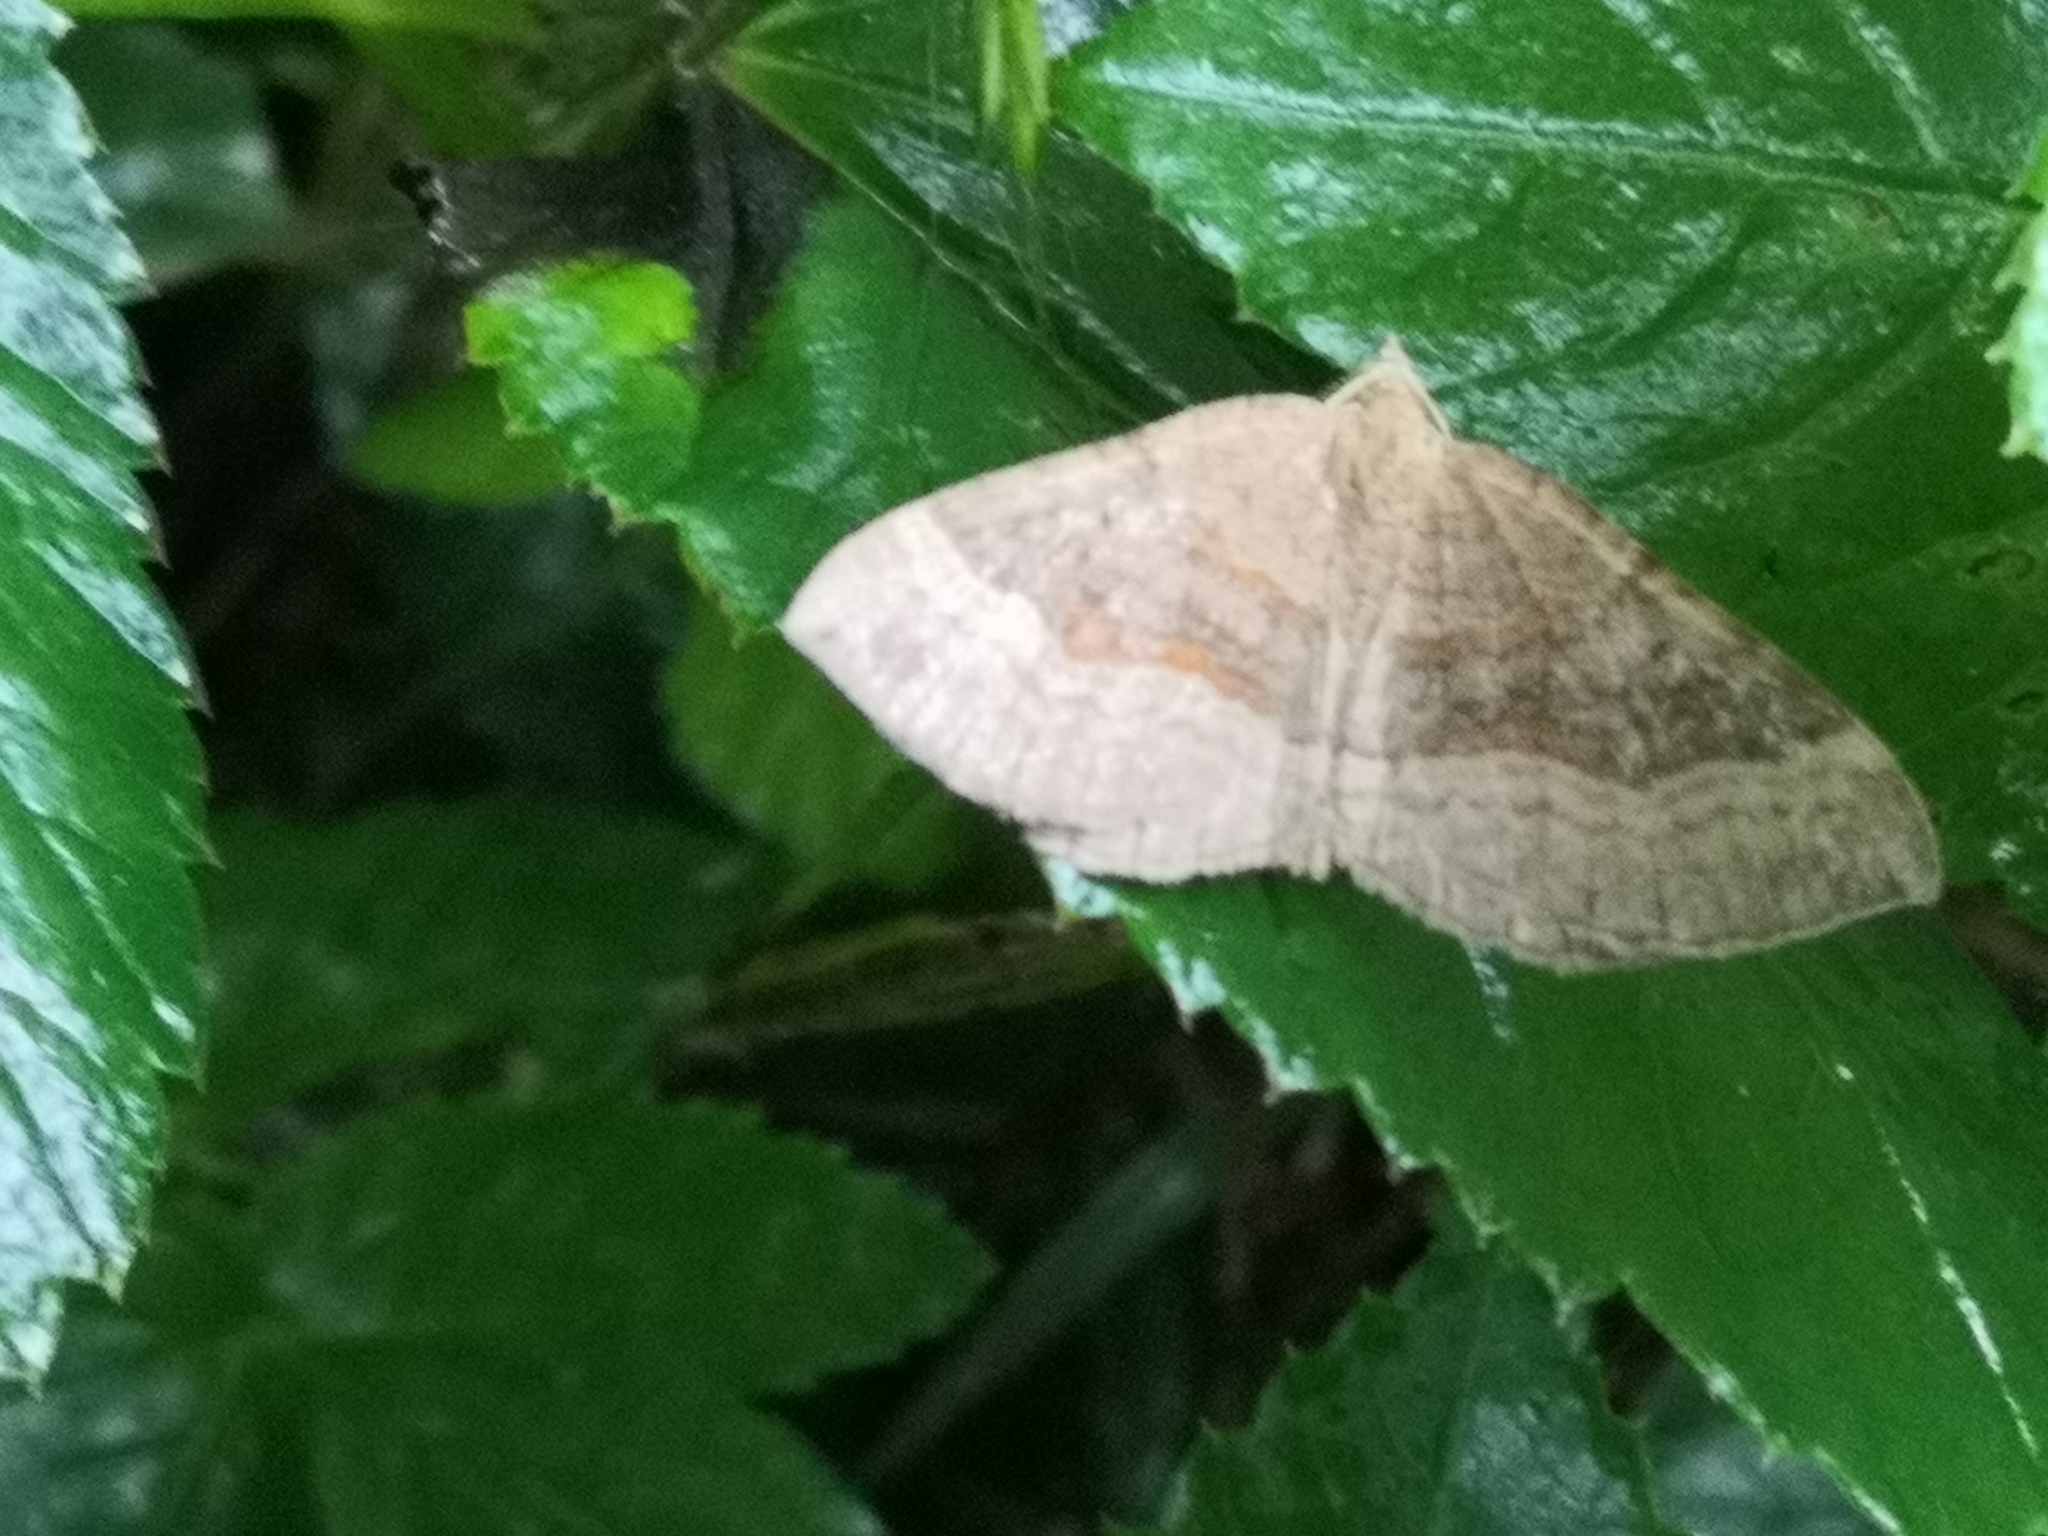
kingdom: Animalia
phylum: Arthropoda
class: Insecta
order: Lepidoptera
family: Geometridae
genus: Scotopteryx
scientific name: Scotopteryx chenopodiata
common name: Shaded broad-bar
